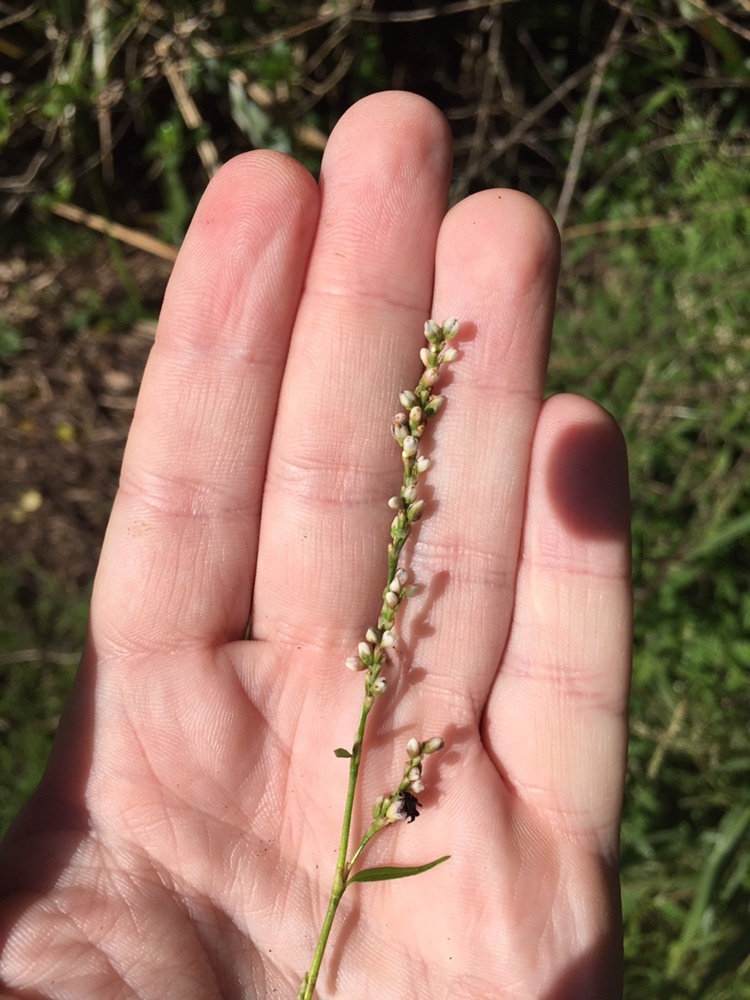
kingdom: Fungi
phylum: Basidiomycota
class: Microbotryomycetes
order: Microbotryales
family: Microbotryaceae
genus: Sphacelotheca
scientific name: Sphacelotheca polygoni-serrulati
